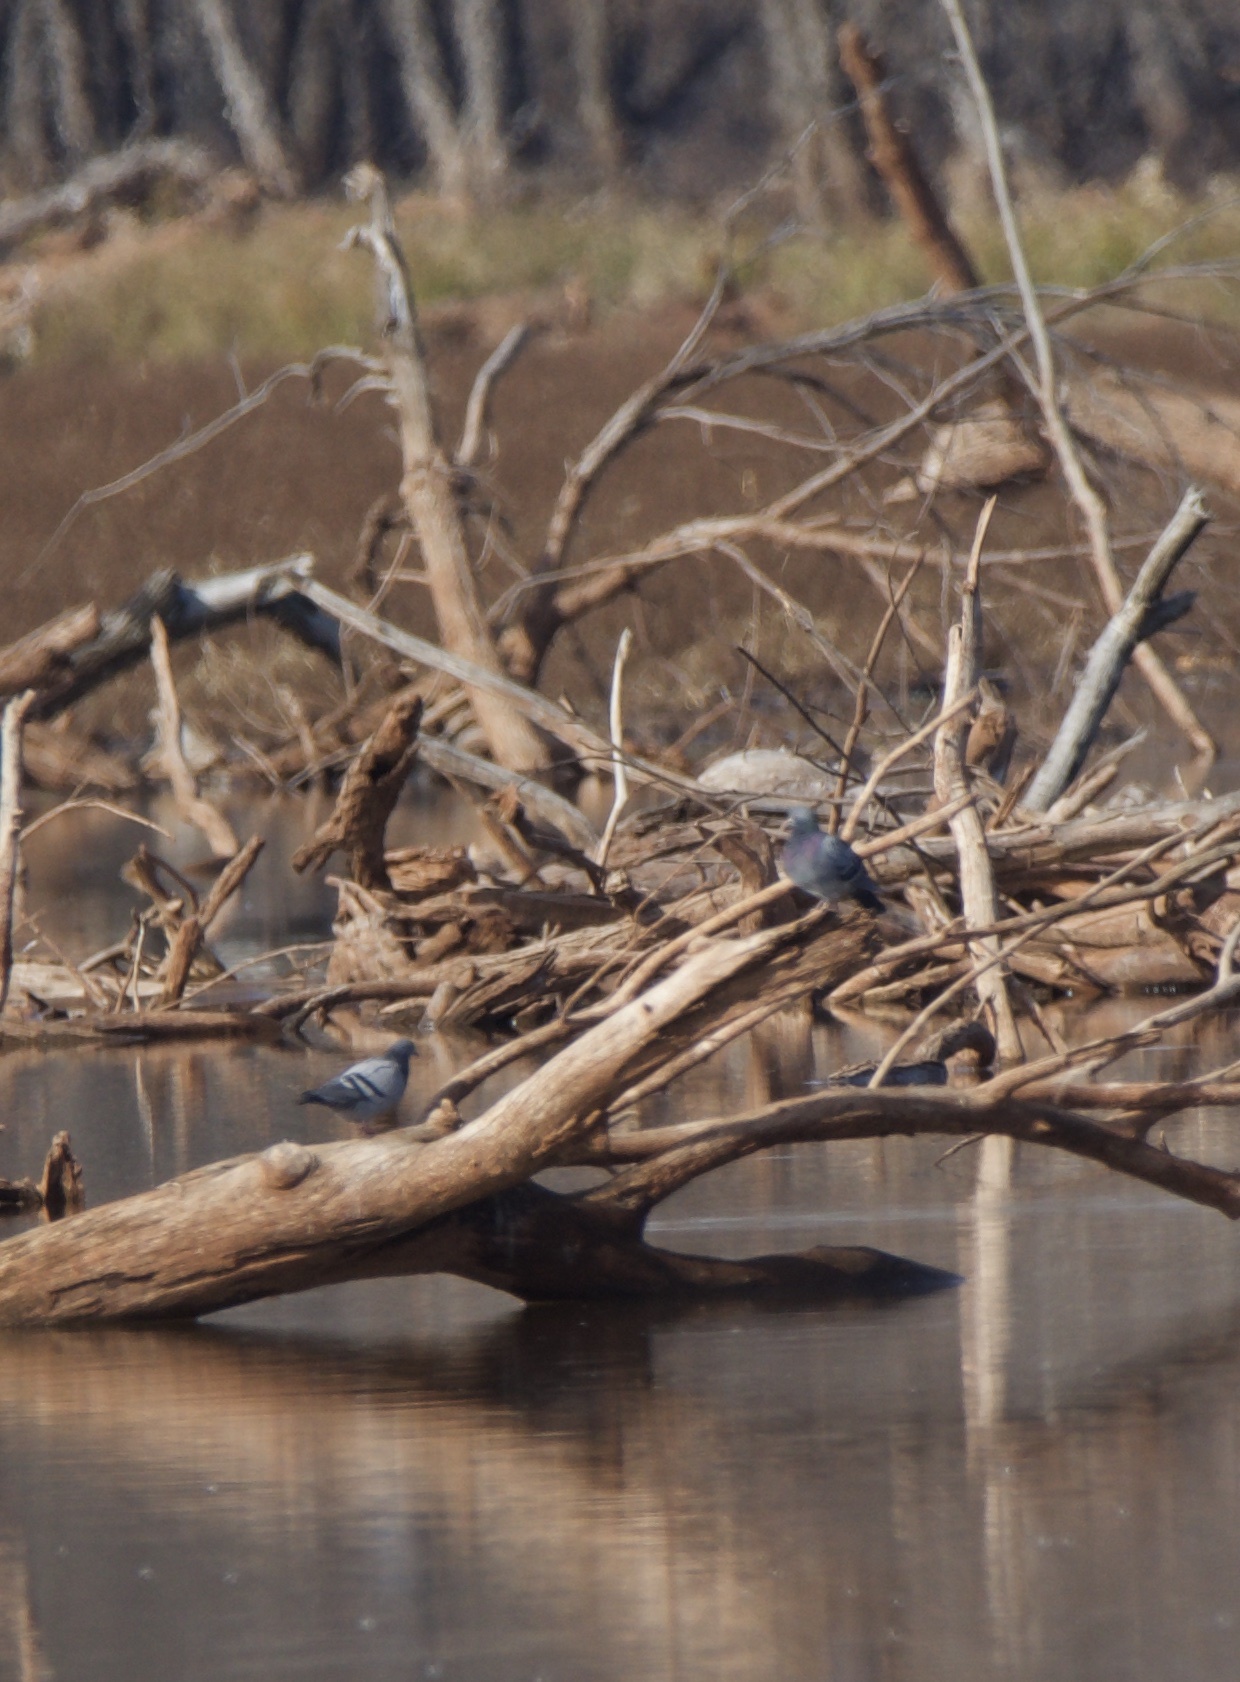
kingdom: Animalia
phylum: Chordata
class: Aves
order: Columbiformes
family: Columbidae
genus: Columba
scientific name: Columba livia
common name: Rock pigeon
